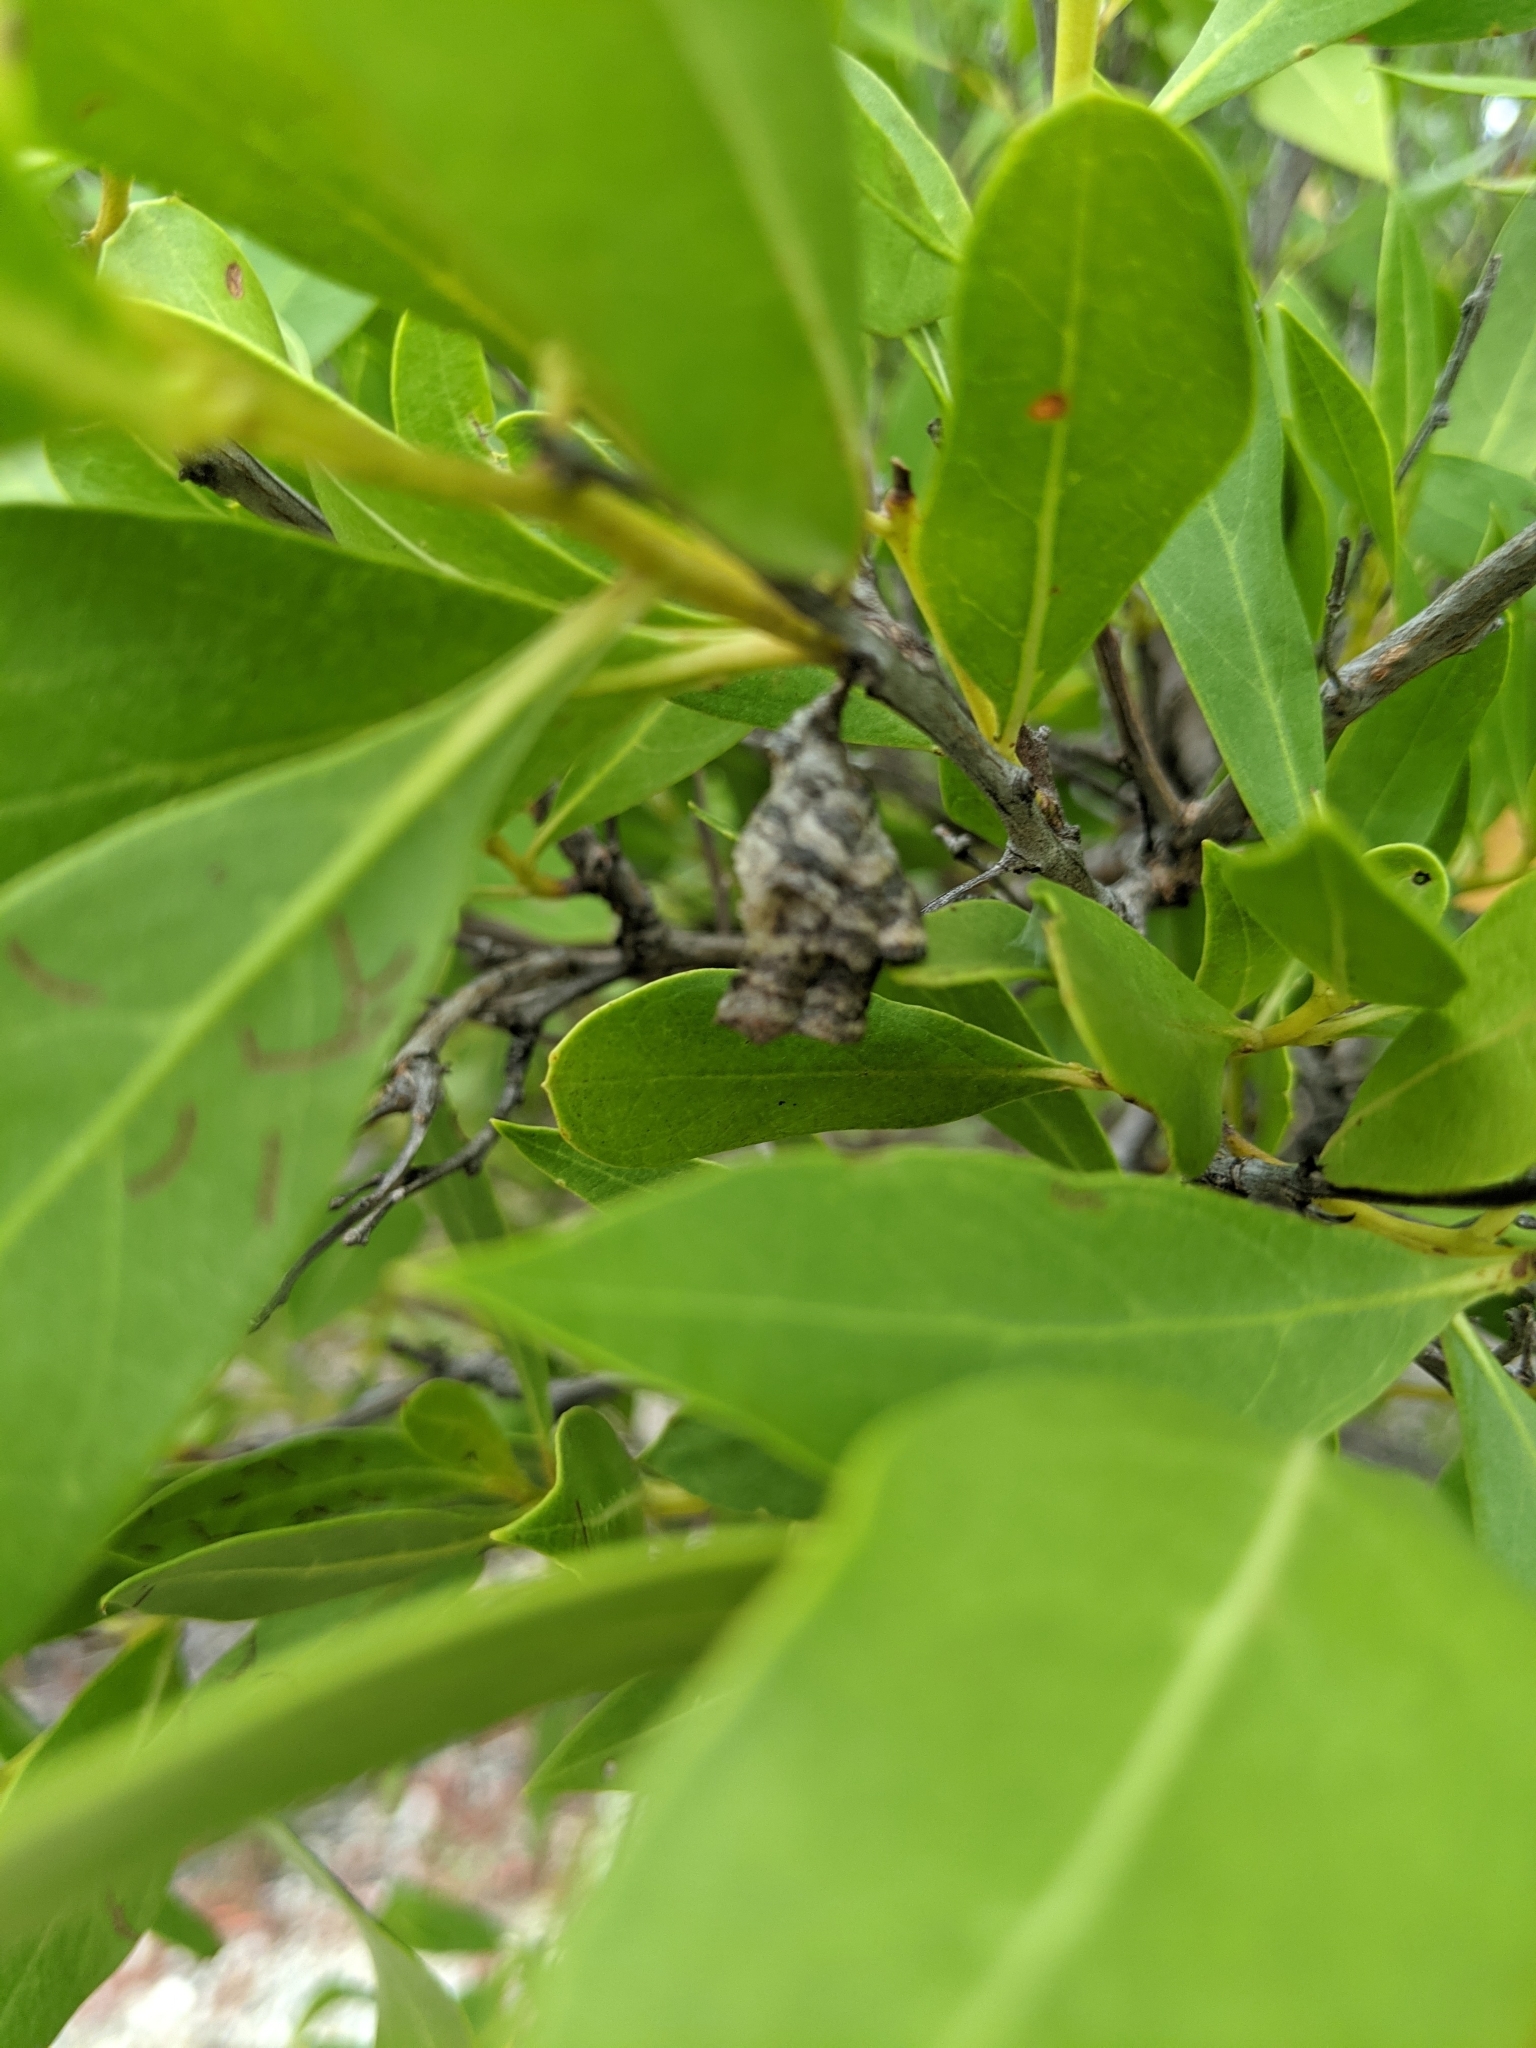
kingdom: Animalia
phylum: Arthropoda
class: Insecta
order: Hymenoptera
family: Vespidae
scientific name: Vespidae
